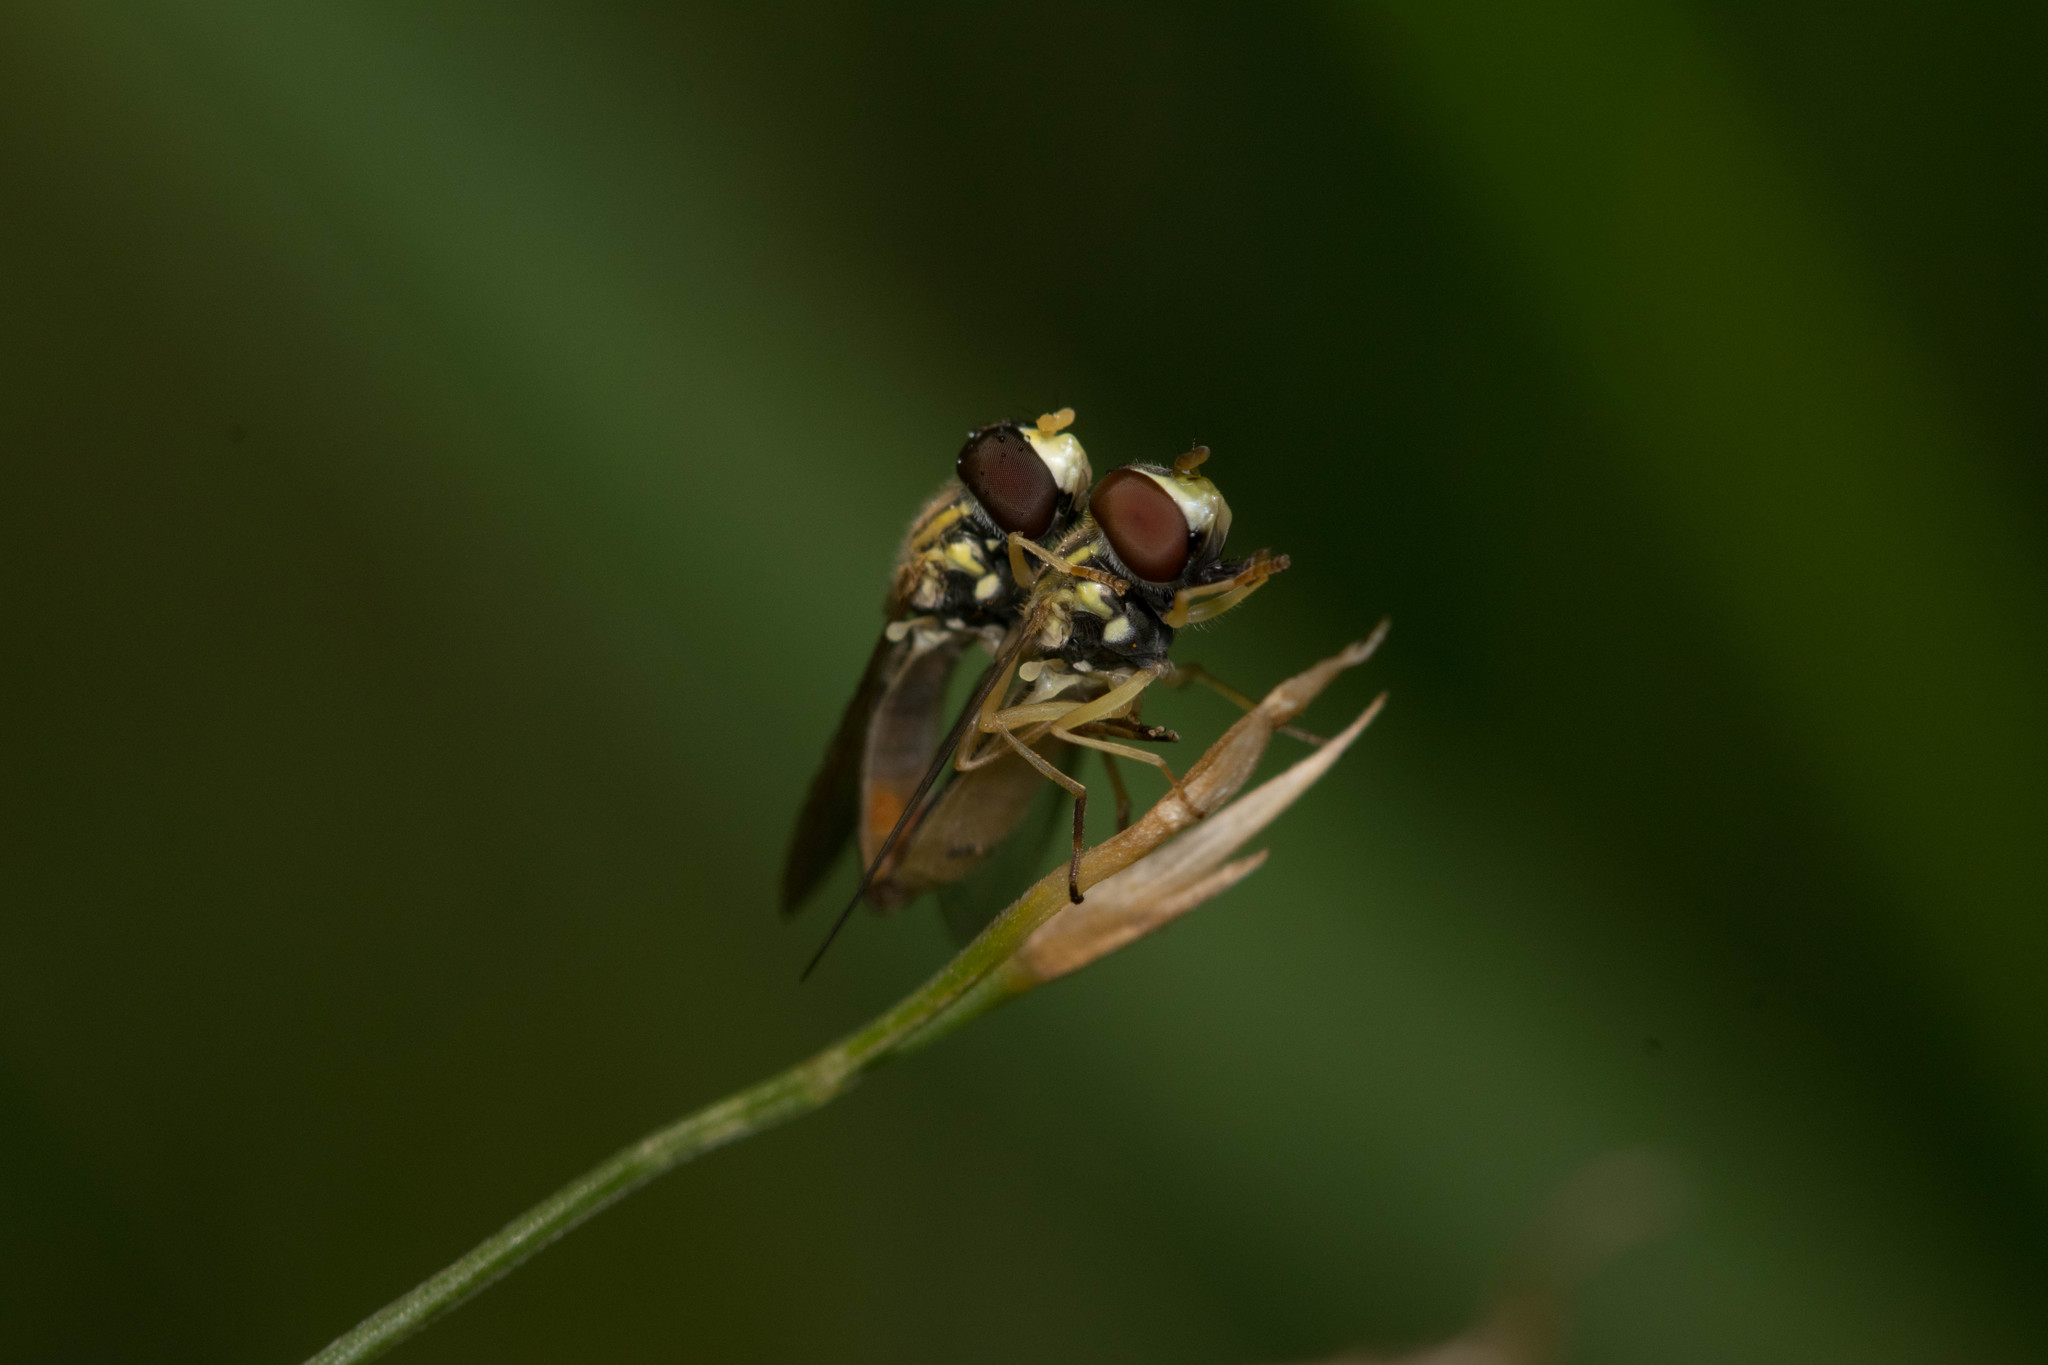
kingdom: Animalia
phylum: Arthropoda
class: Insecta
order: Diptera
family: Syrphidae
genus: Toxomerus
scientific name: Toxomerus
